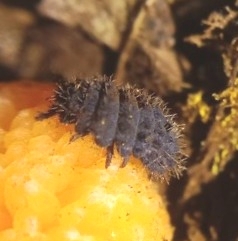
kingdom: Animalia
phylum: Arthropoda
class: Collembola
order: Poduromorpha
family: Neanuridae
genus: Morulina
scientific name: Morulina verrucosa
